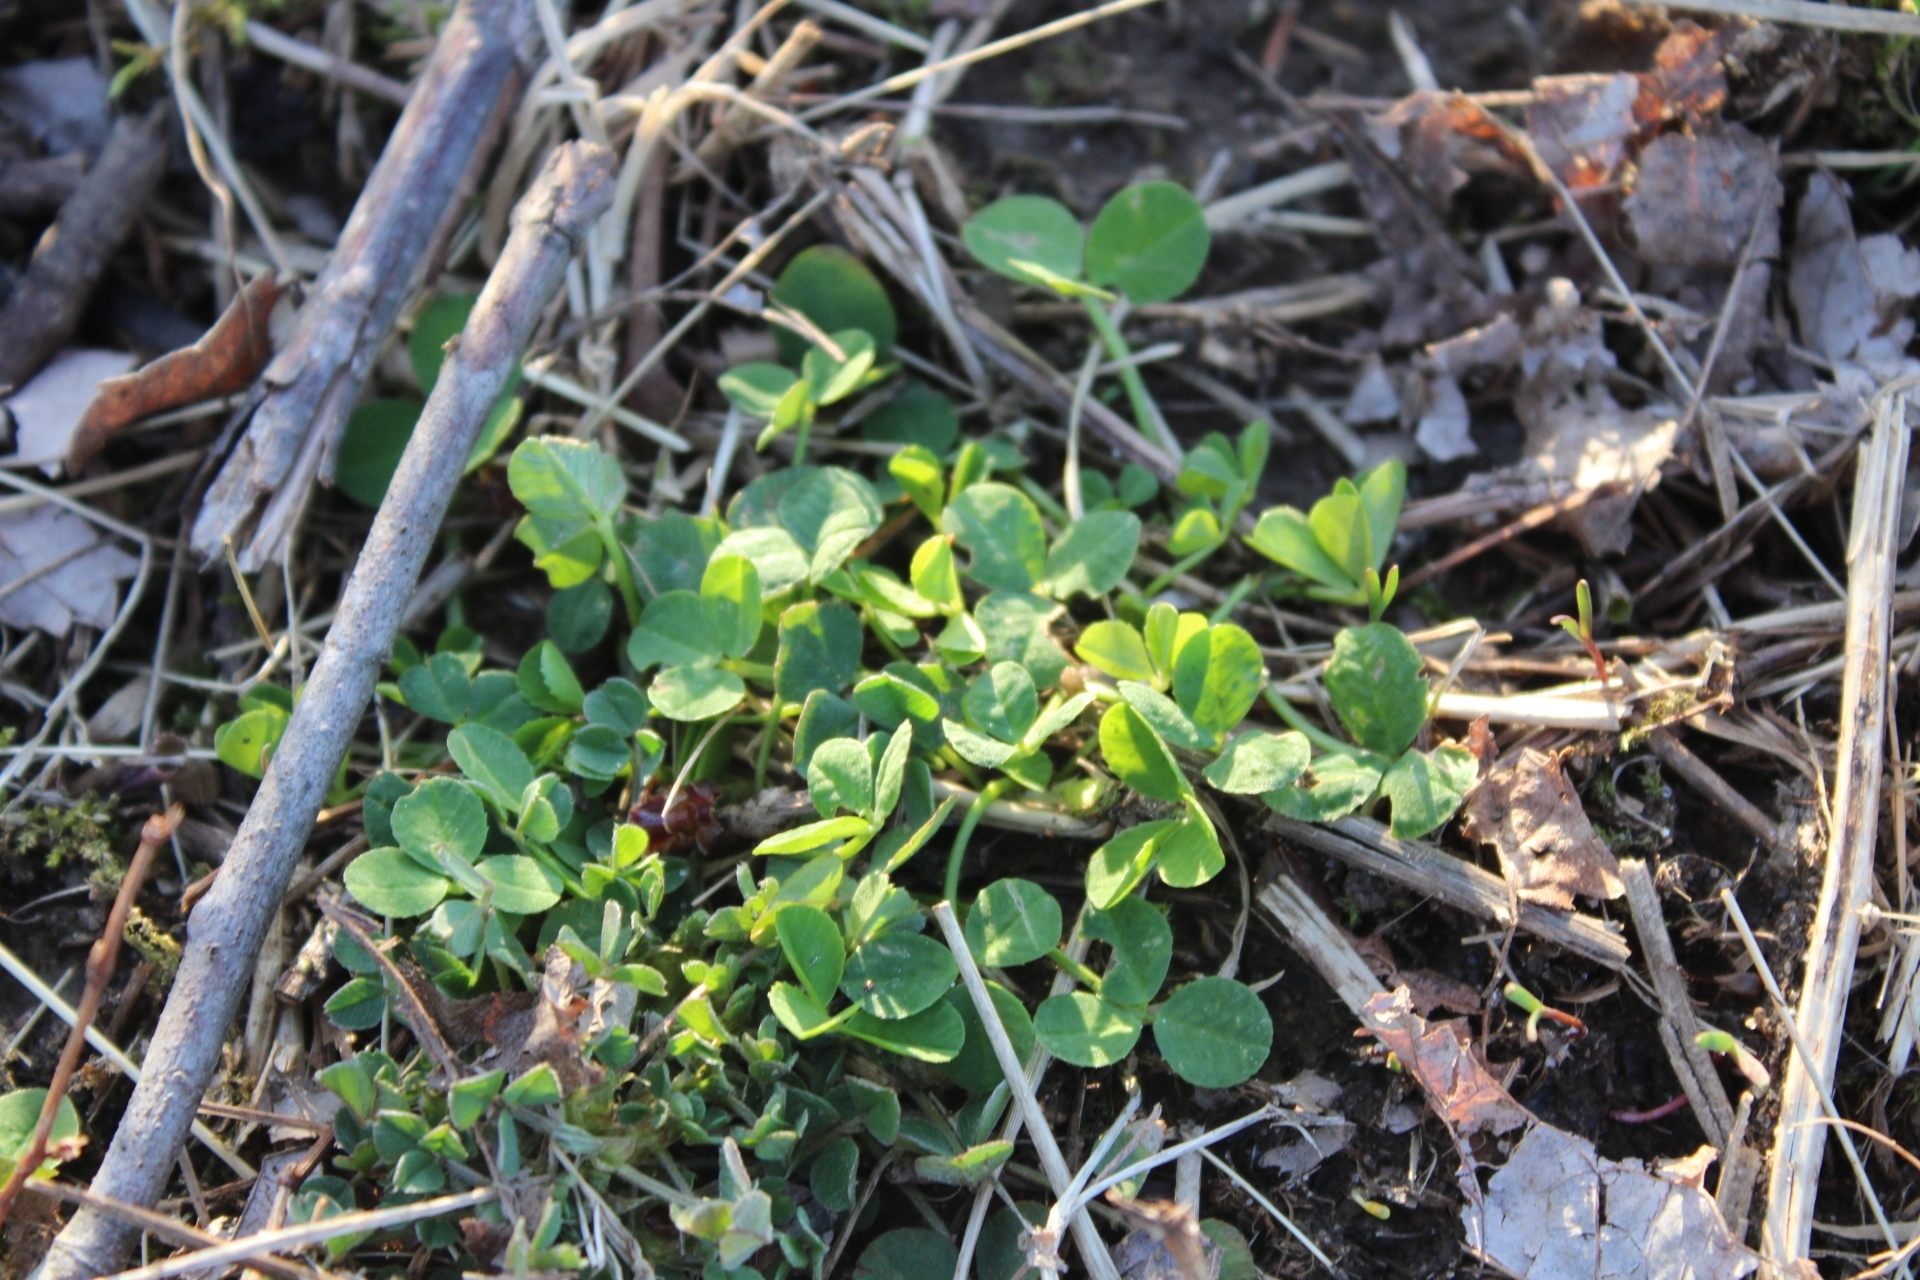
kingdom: Plantae
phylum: Tracheophyta
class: Magnoliopsida
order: Fabales
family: Fabaceae
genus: Trifolium
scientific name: Trifolium repens
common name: White clover
